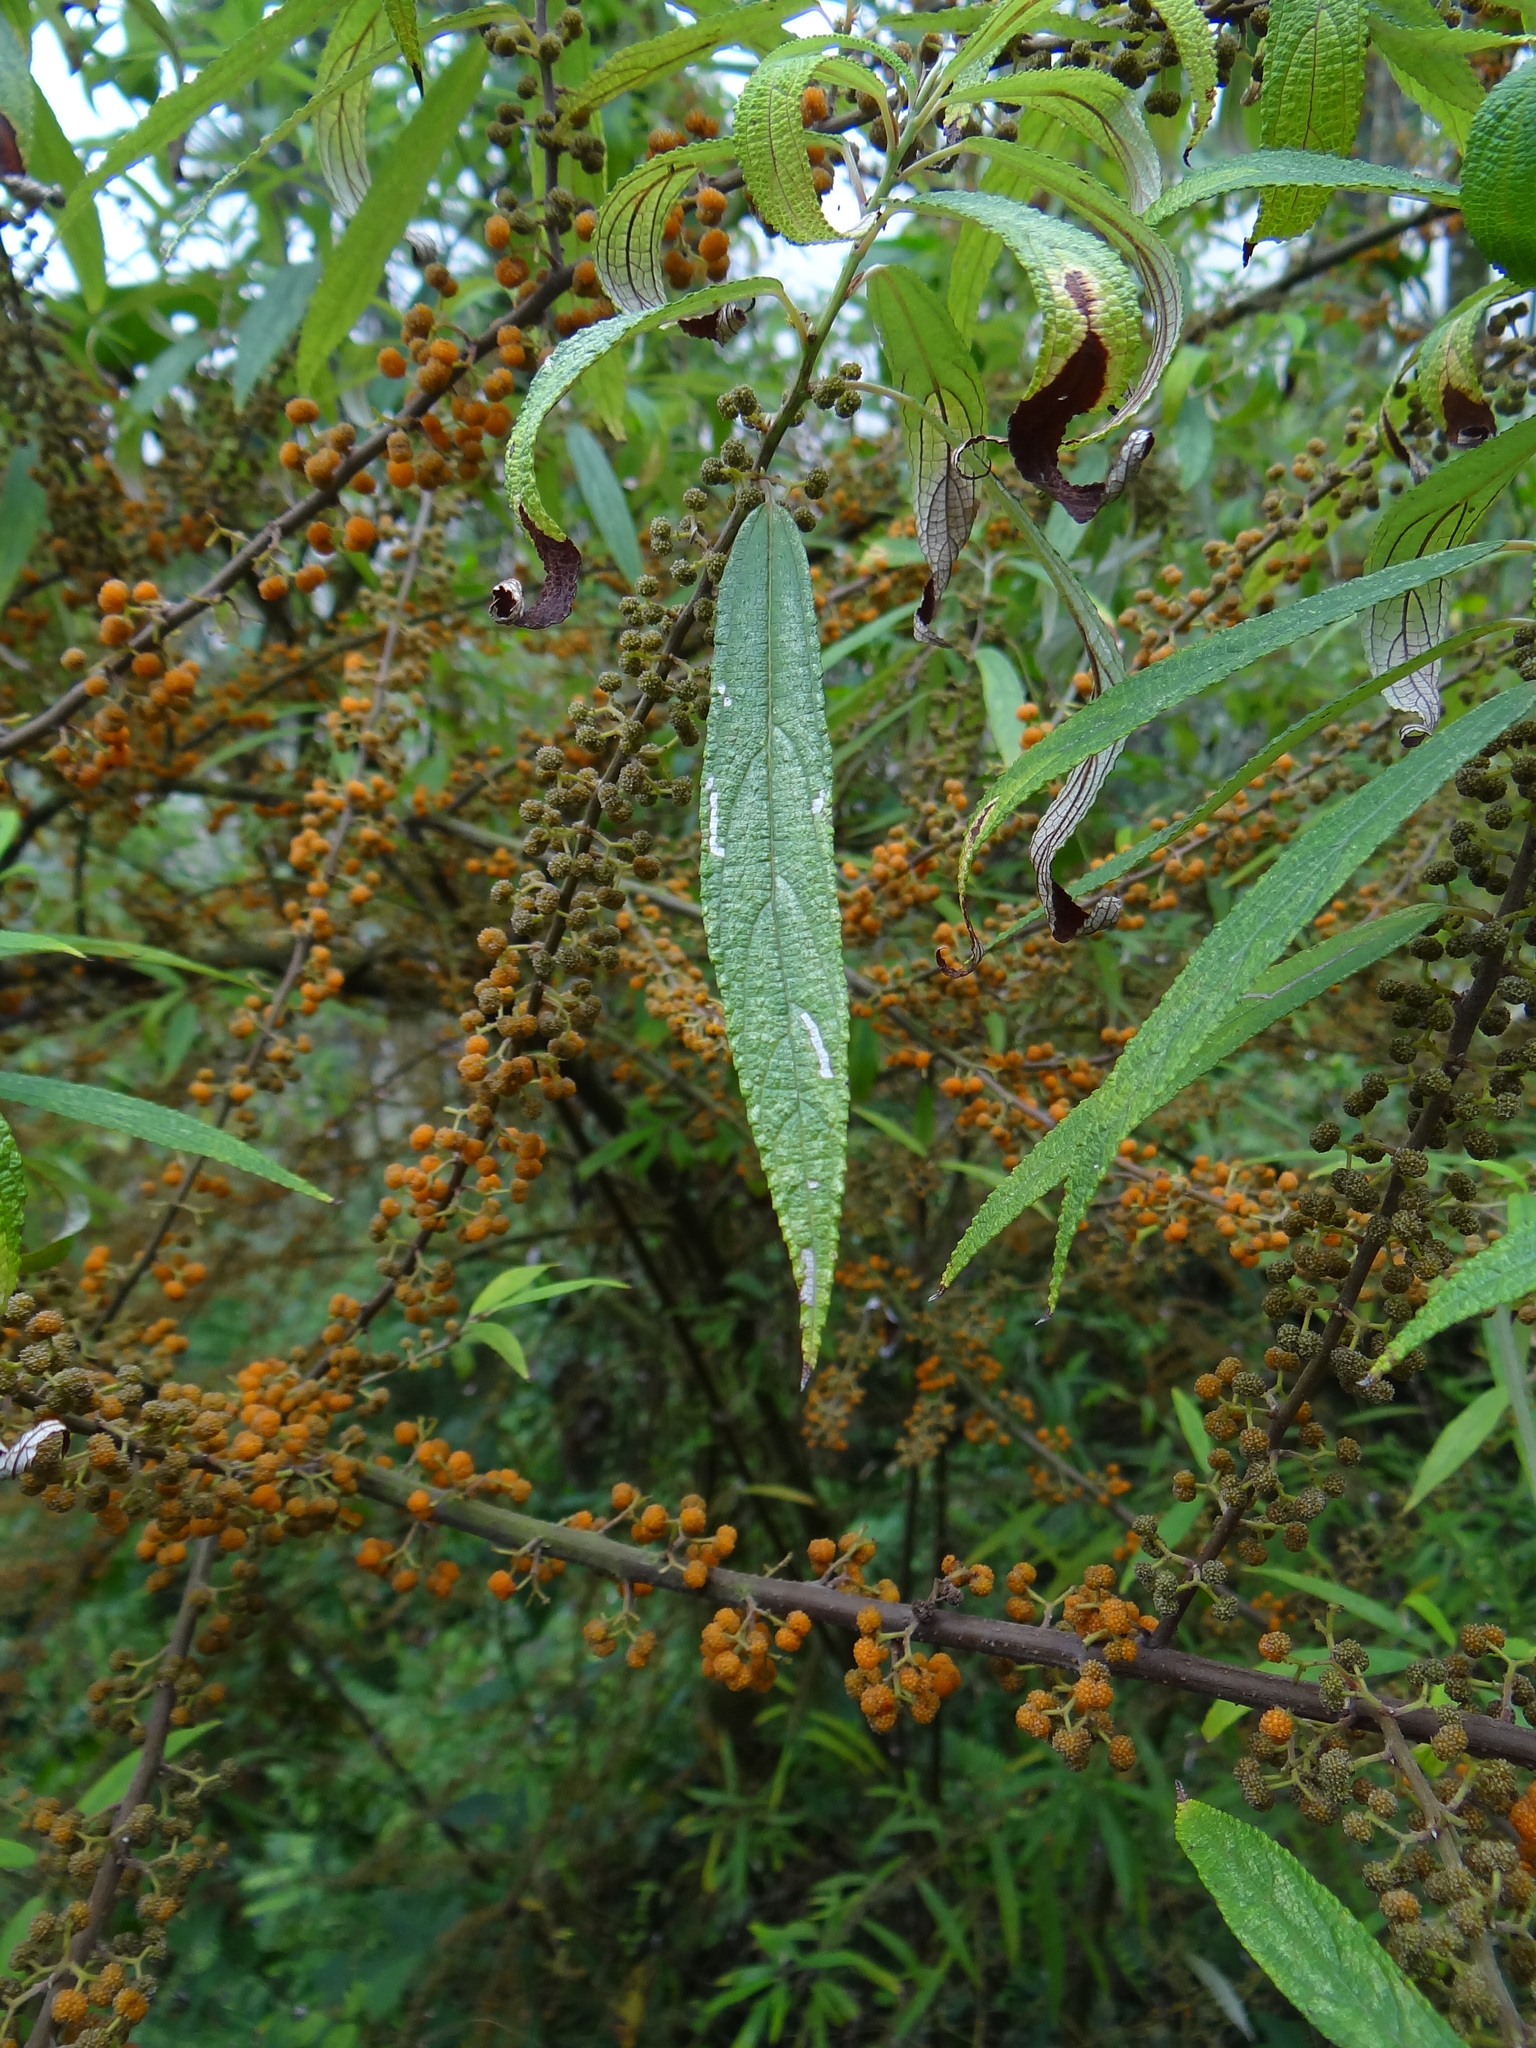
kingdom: Plantae
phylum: Tracheophyta
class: Magnoliopsida
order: Rosales
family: Urticaceae
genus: Debregeasia
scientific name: Debregeasia orientalis
